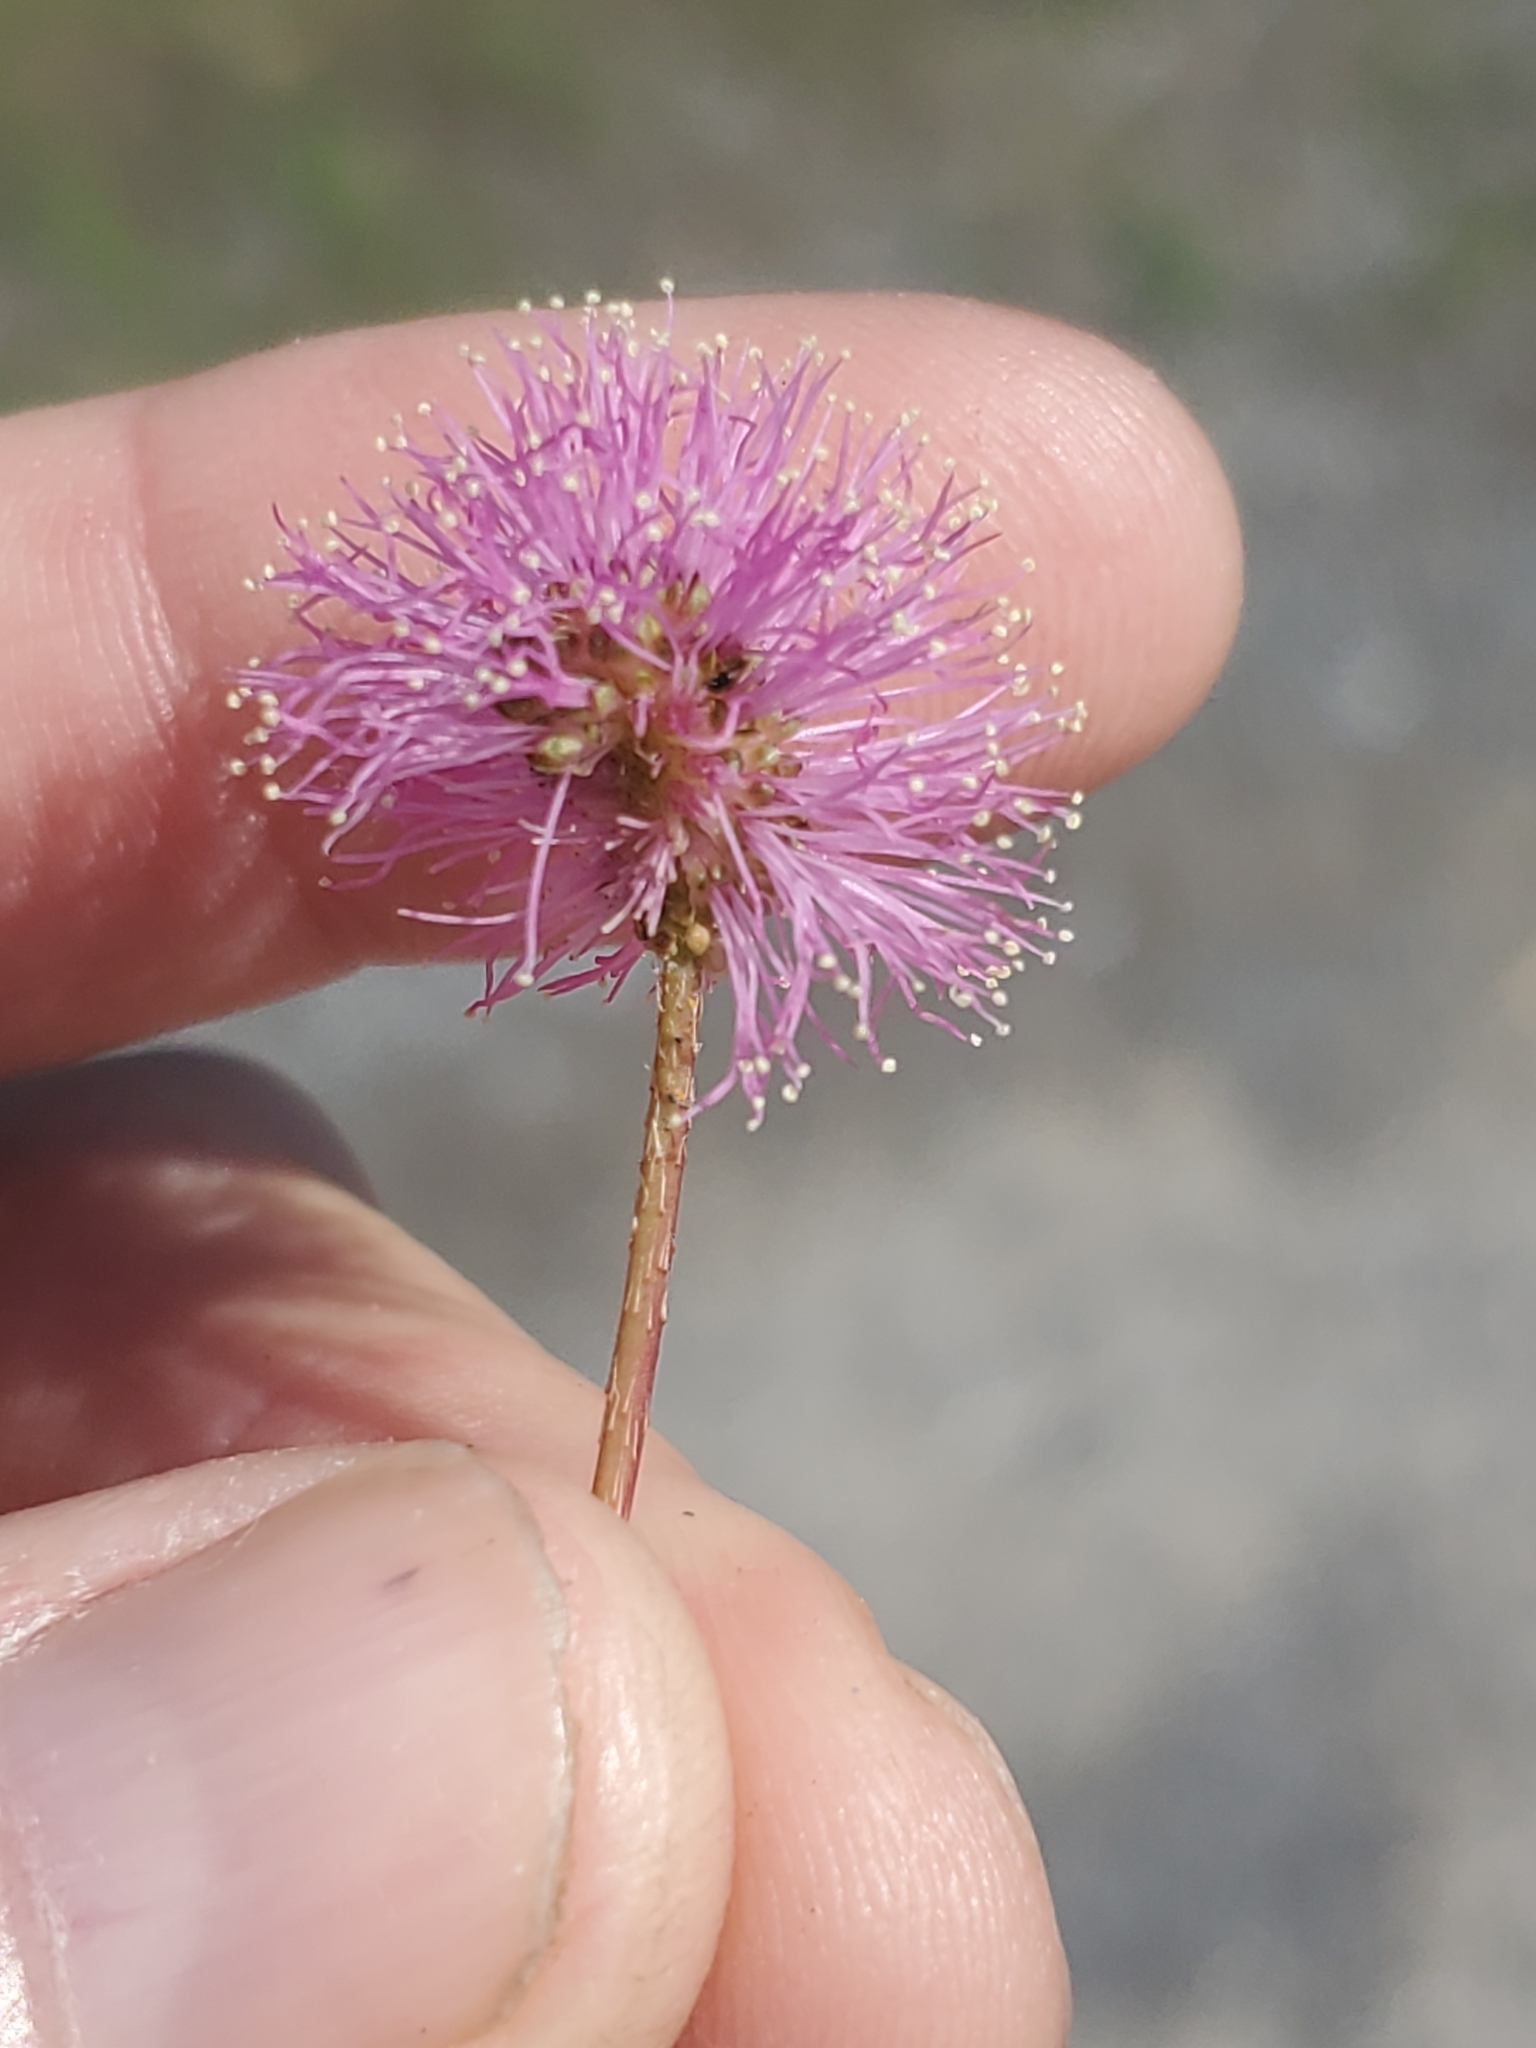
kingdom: Plantae
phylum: Tracheophyta
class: Magnoliopsida
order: Fabales
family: Fabaceae
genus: Mimosa
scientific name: Mimosa strigillosa
